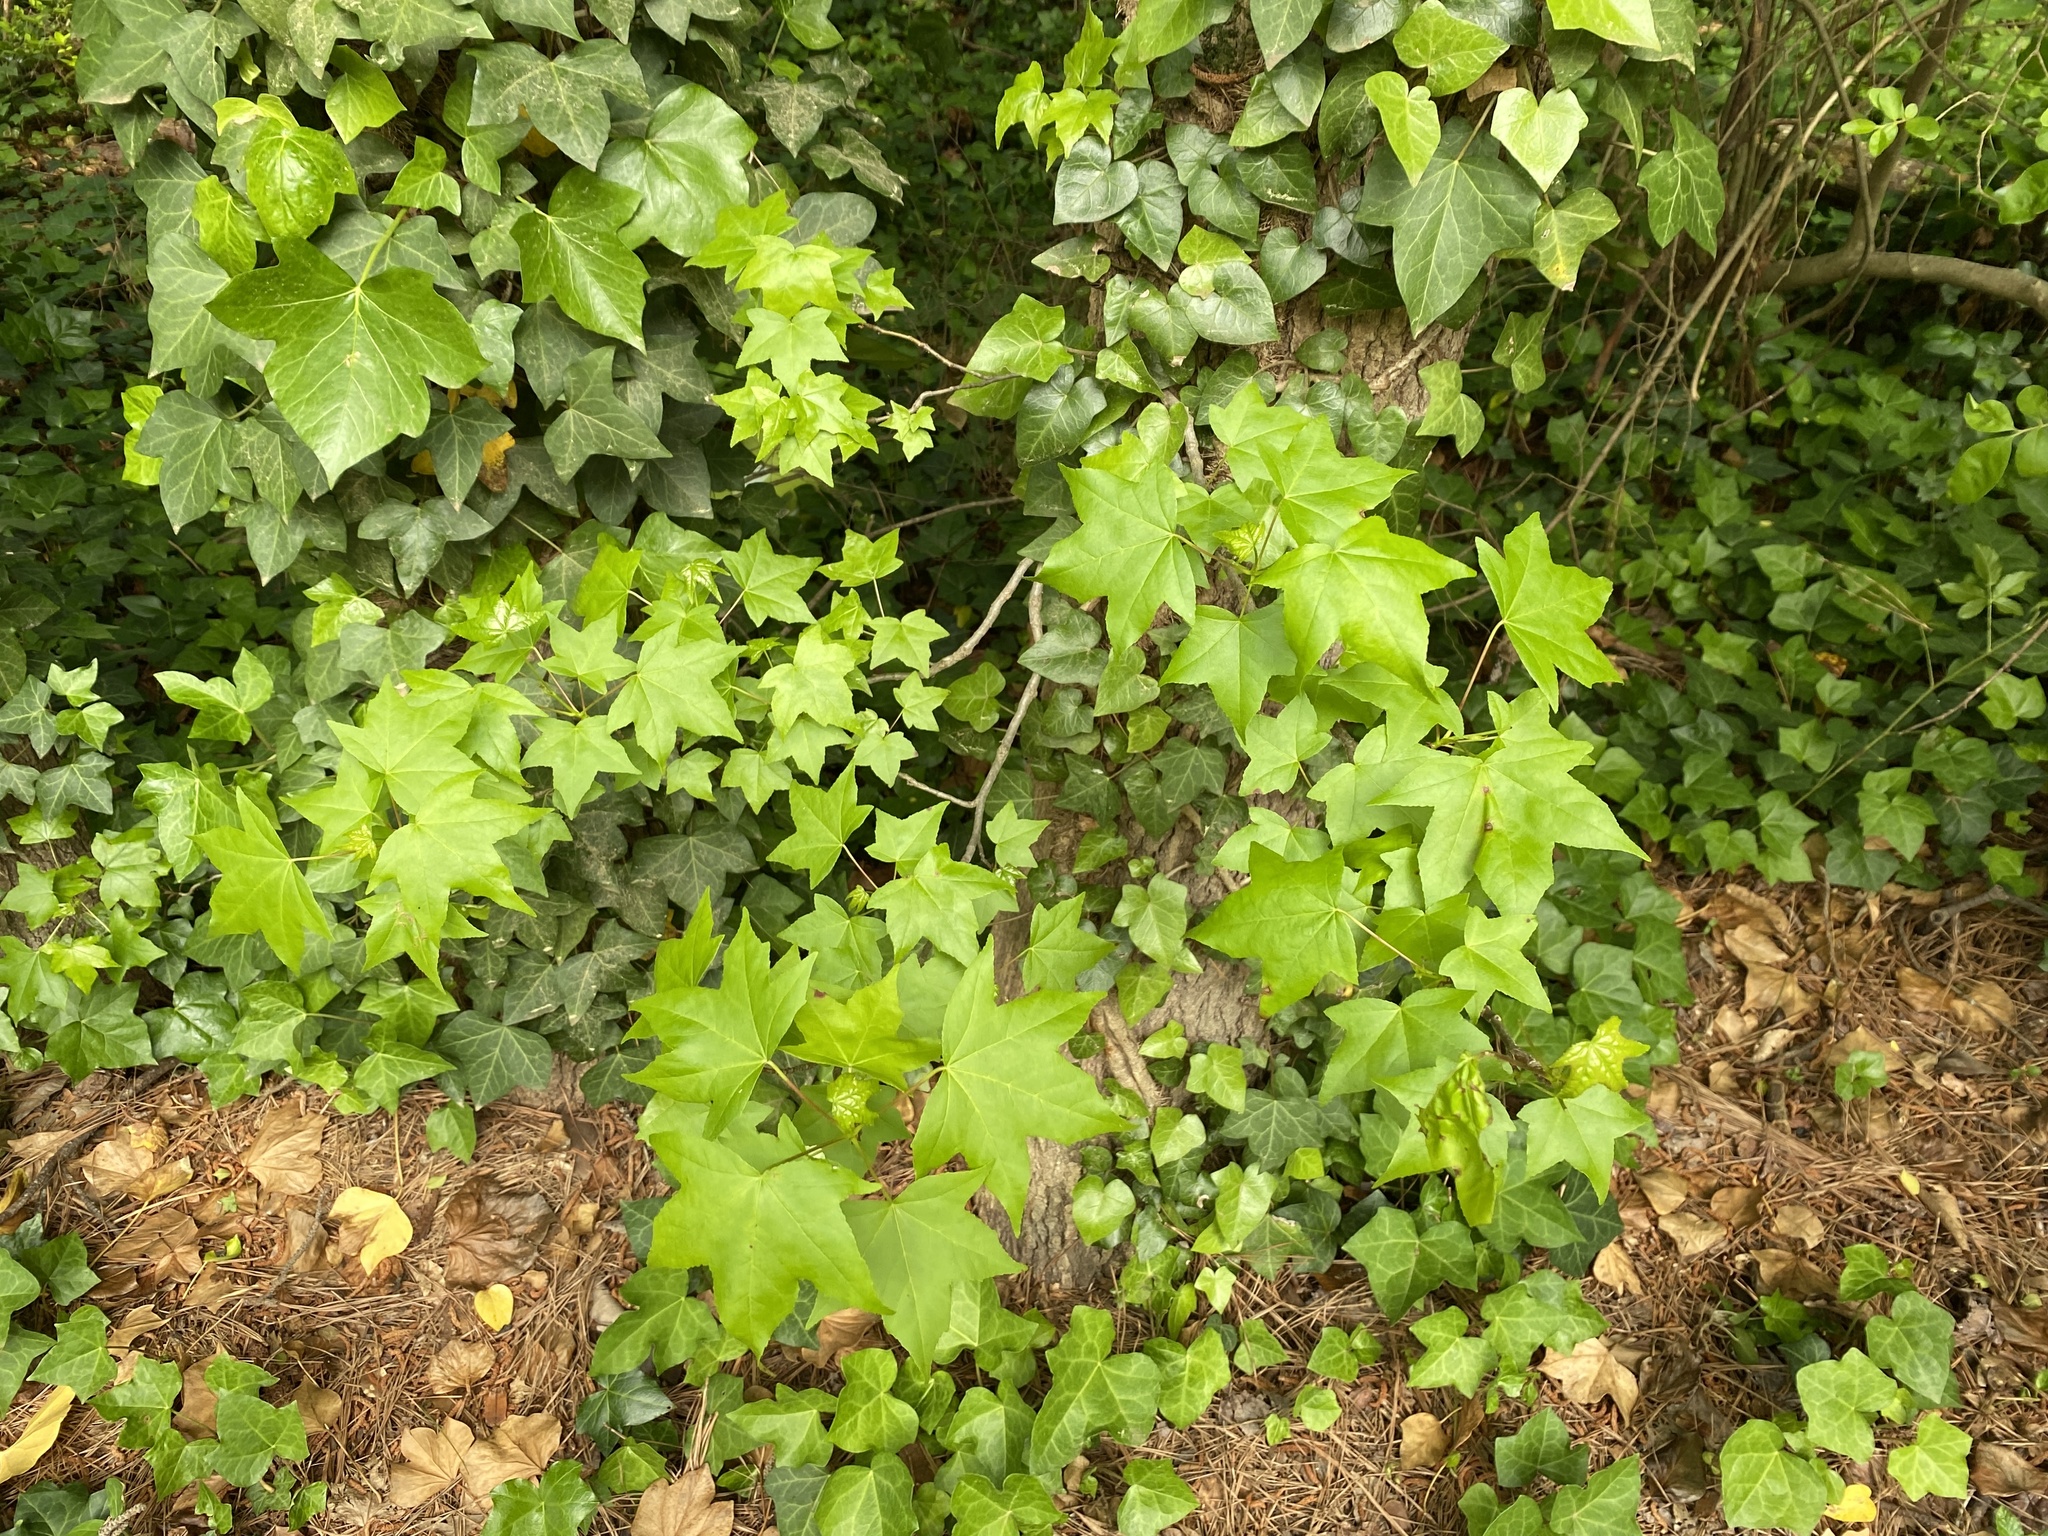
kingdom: Plantae
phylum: Tracheophyta
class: Magnoliopsida
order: Saxifragales
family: Altingiaceae
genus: Liquidambar
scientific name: Liquidambar styraciflua
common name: Sweet gum
